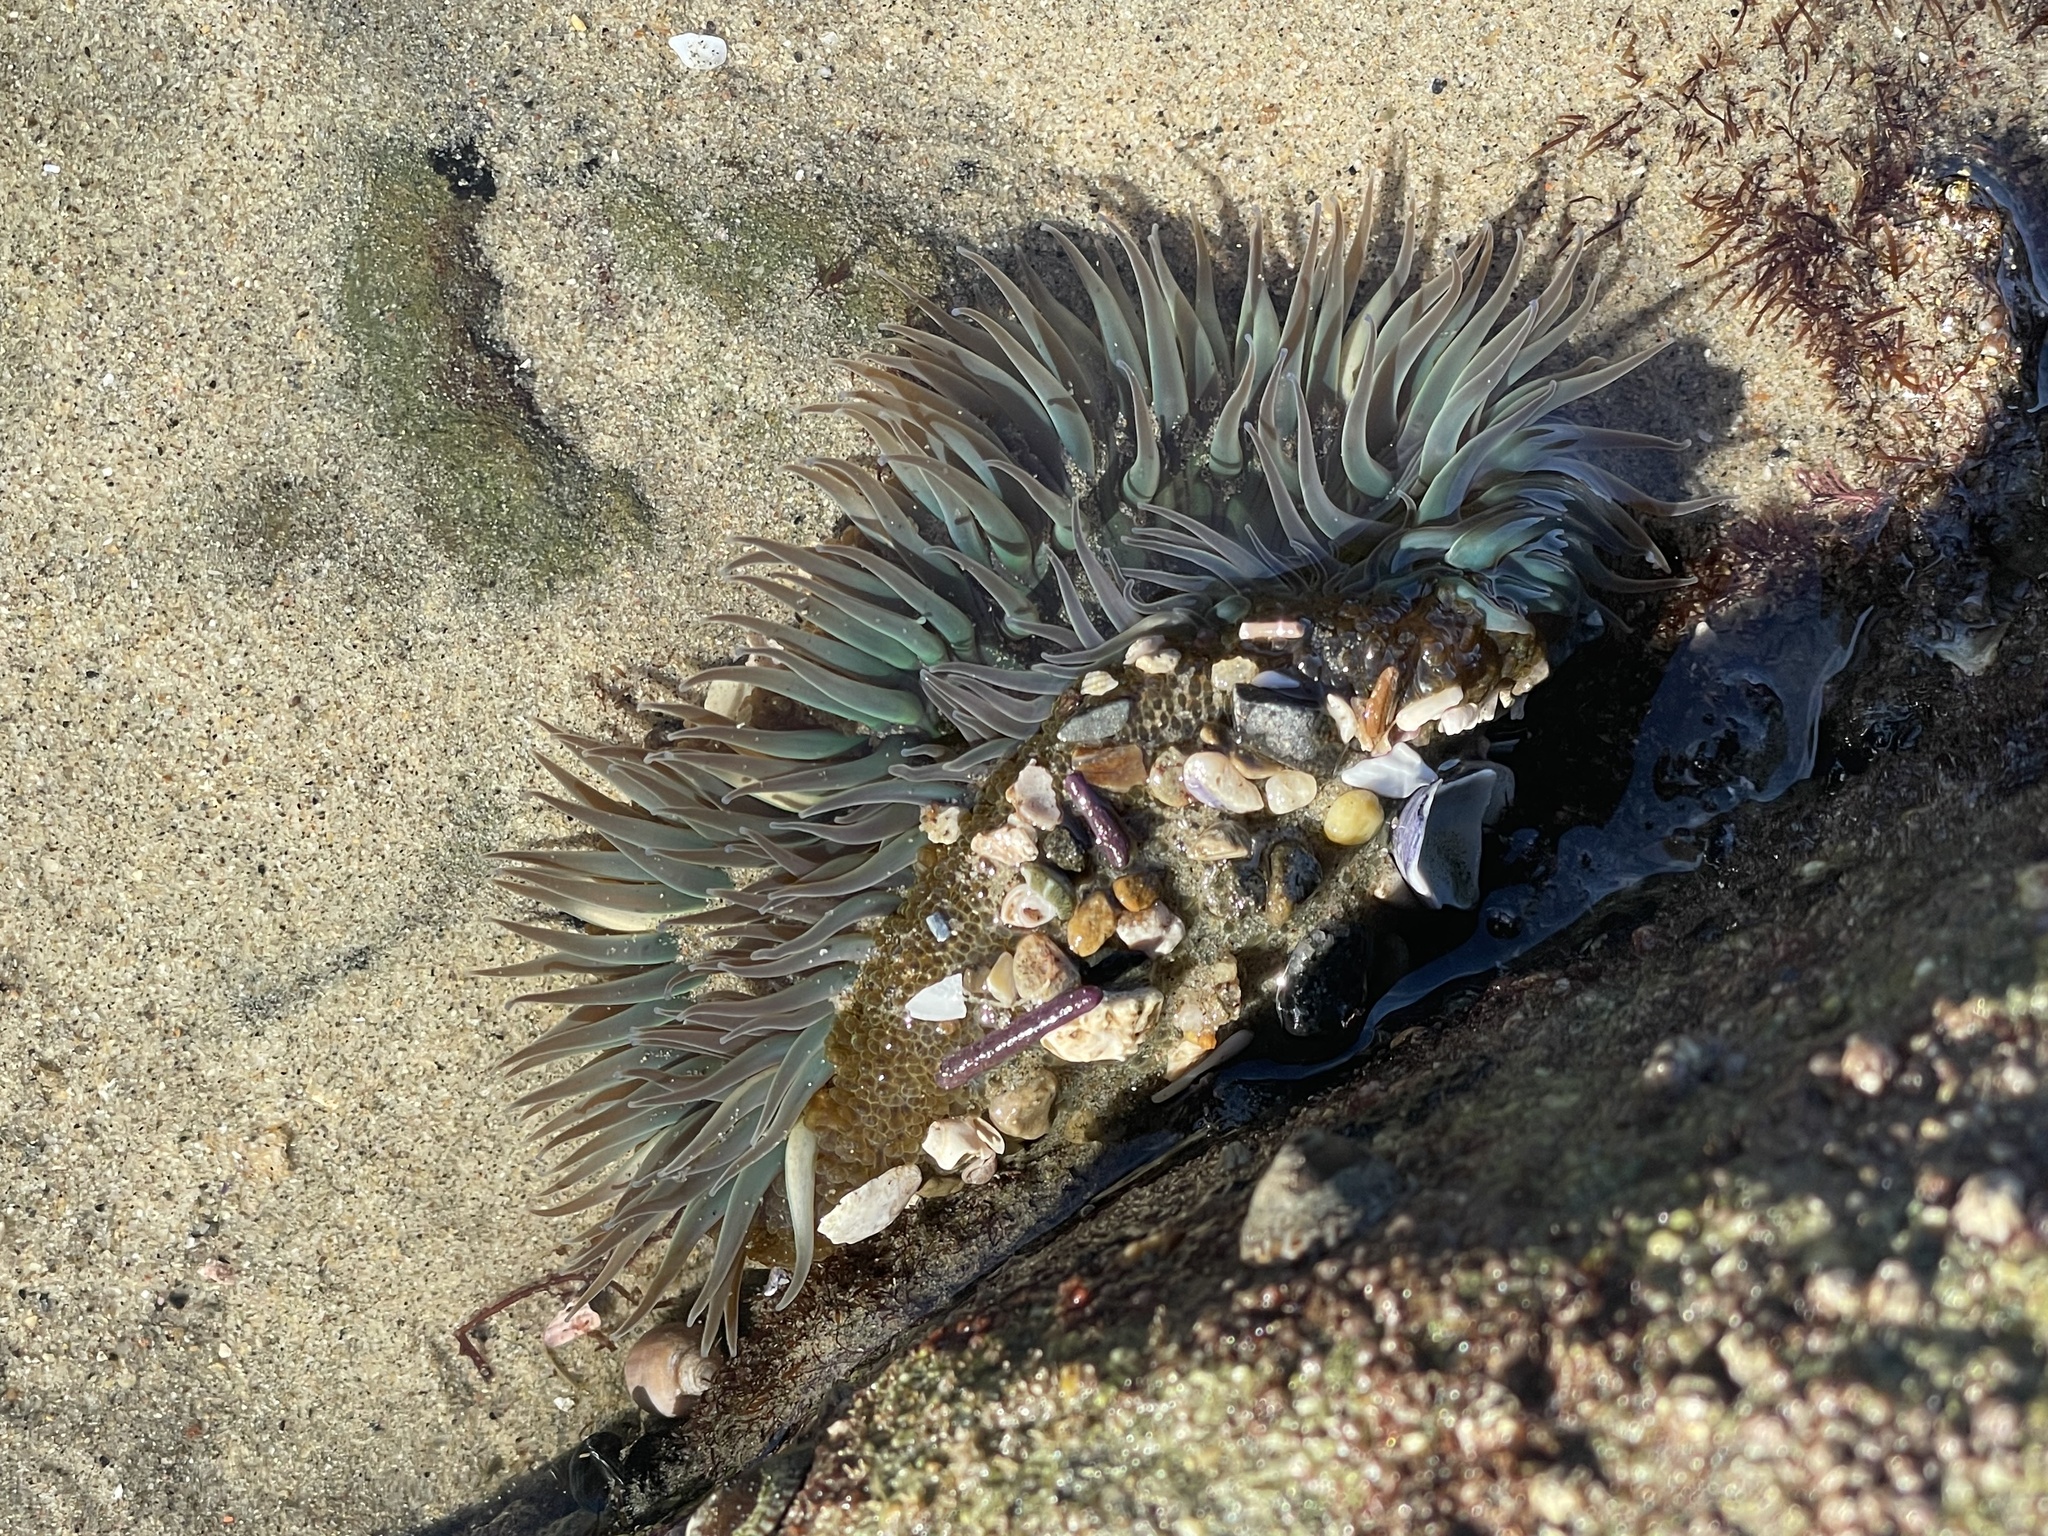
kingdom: Animalia
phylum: Cnidaria
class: Anthozoa
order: Actiniaria
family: Actiniidae
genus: Anthopleura
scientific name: Anthopleura sola
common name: Sun anemone
